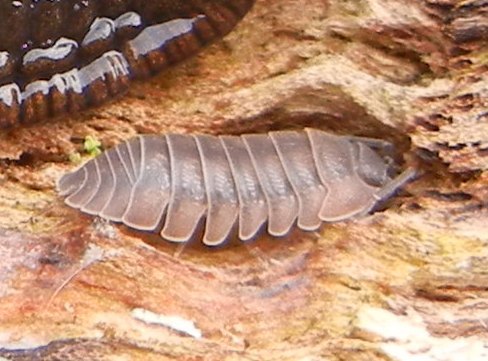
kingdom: Animalia
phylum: Arthropoda
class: Malacostraca
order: Isopoda
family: Armadillidiidae
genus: Armadillidium
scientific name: Armadillidium nasatum
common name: Isopod
